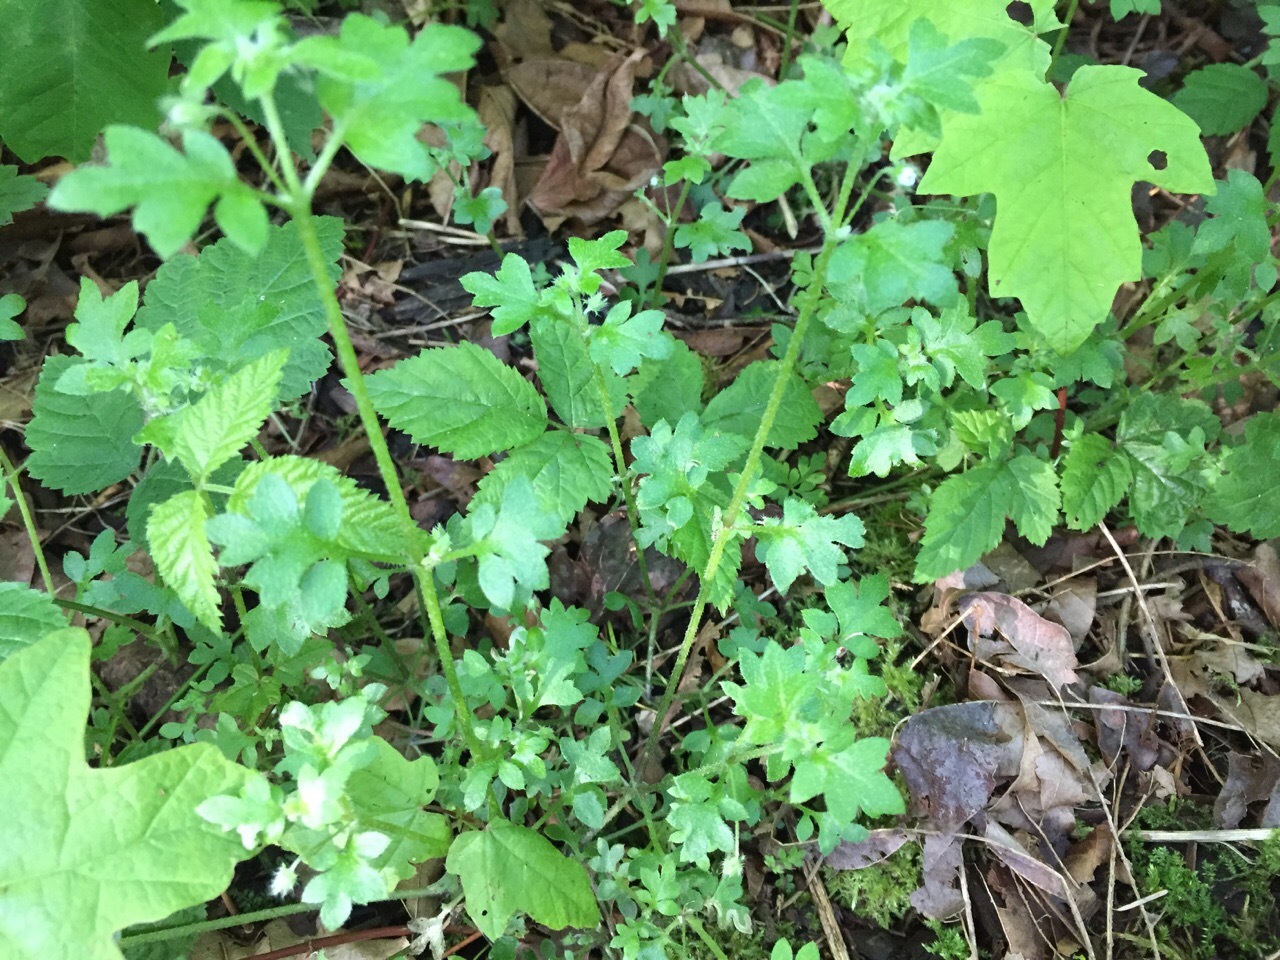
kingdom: Plantae
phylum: Tracheophyta
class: Magnoliopsida
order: Boraginales
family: Hydrophyllaceae
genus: Nemophila
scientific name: Nemophila parviflora
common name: Small-flowered baby-blue-eyes
